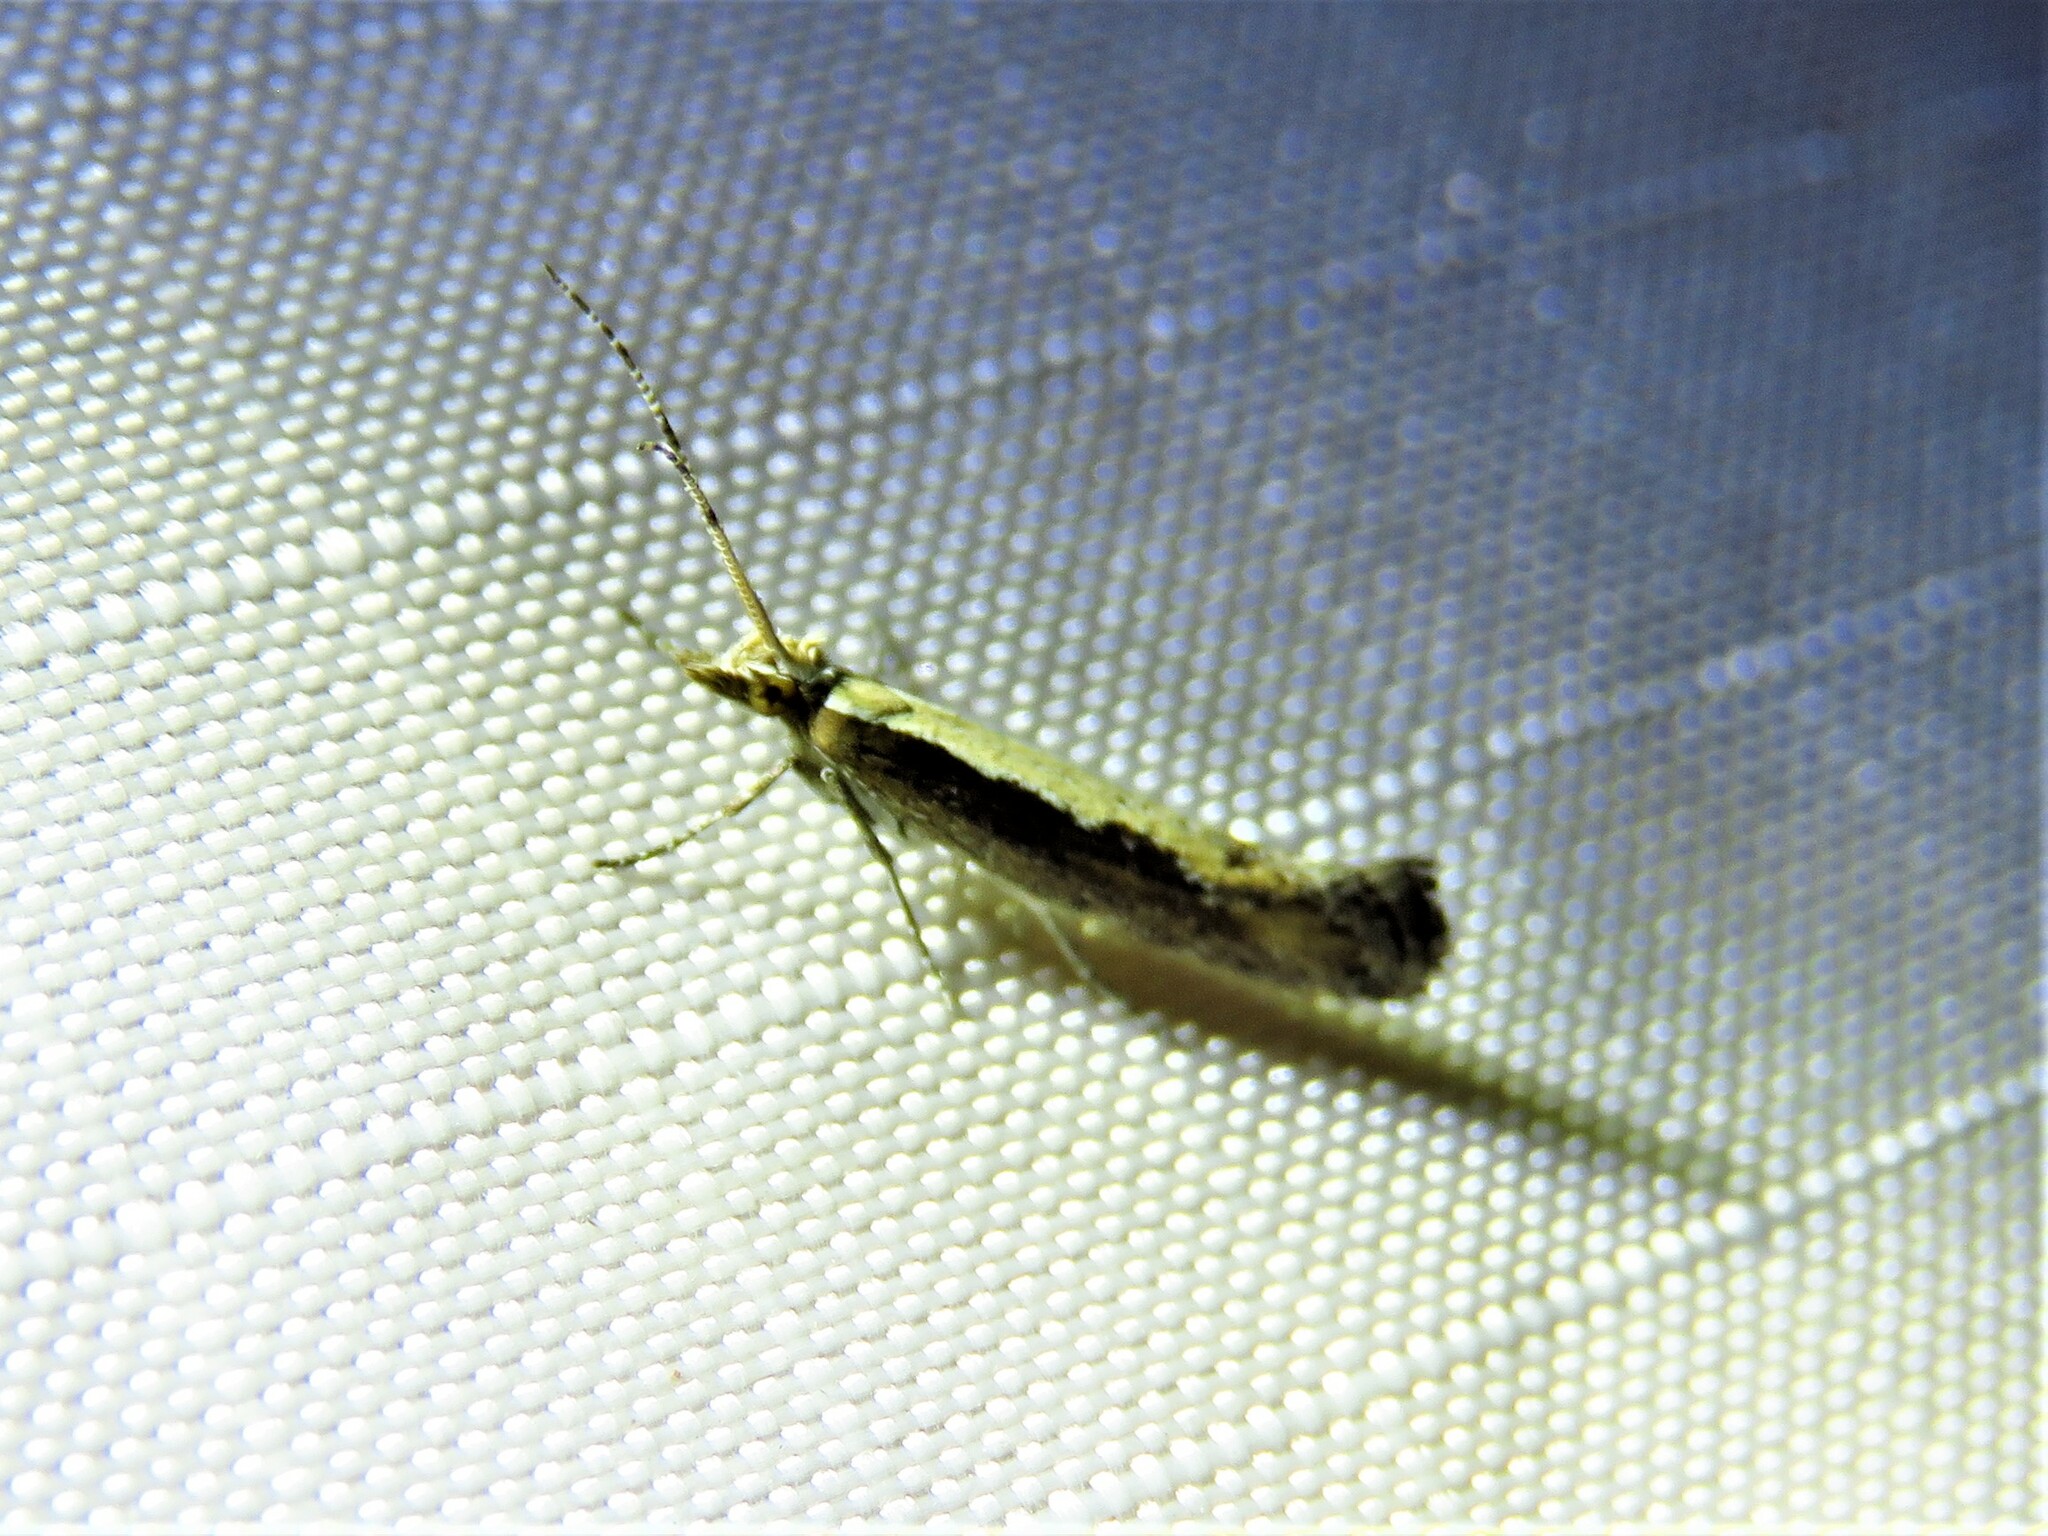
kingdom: Animalia
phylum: Arthropoda
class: Insecta
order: Lepidoptera
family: Plutellidae
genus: Plutella
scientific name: Plutella xylostella
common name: Diamond-back moth
